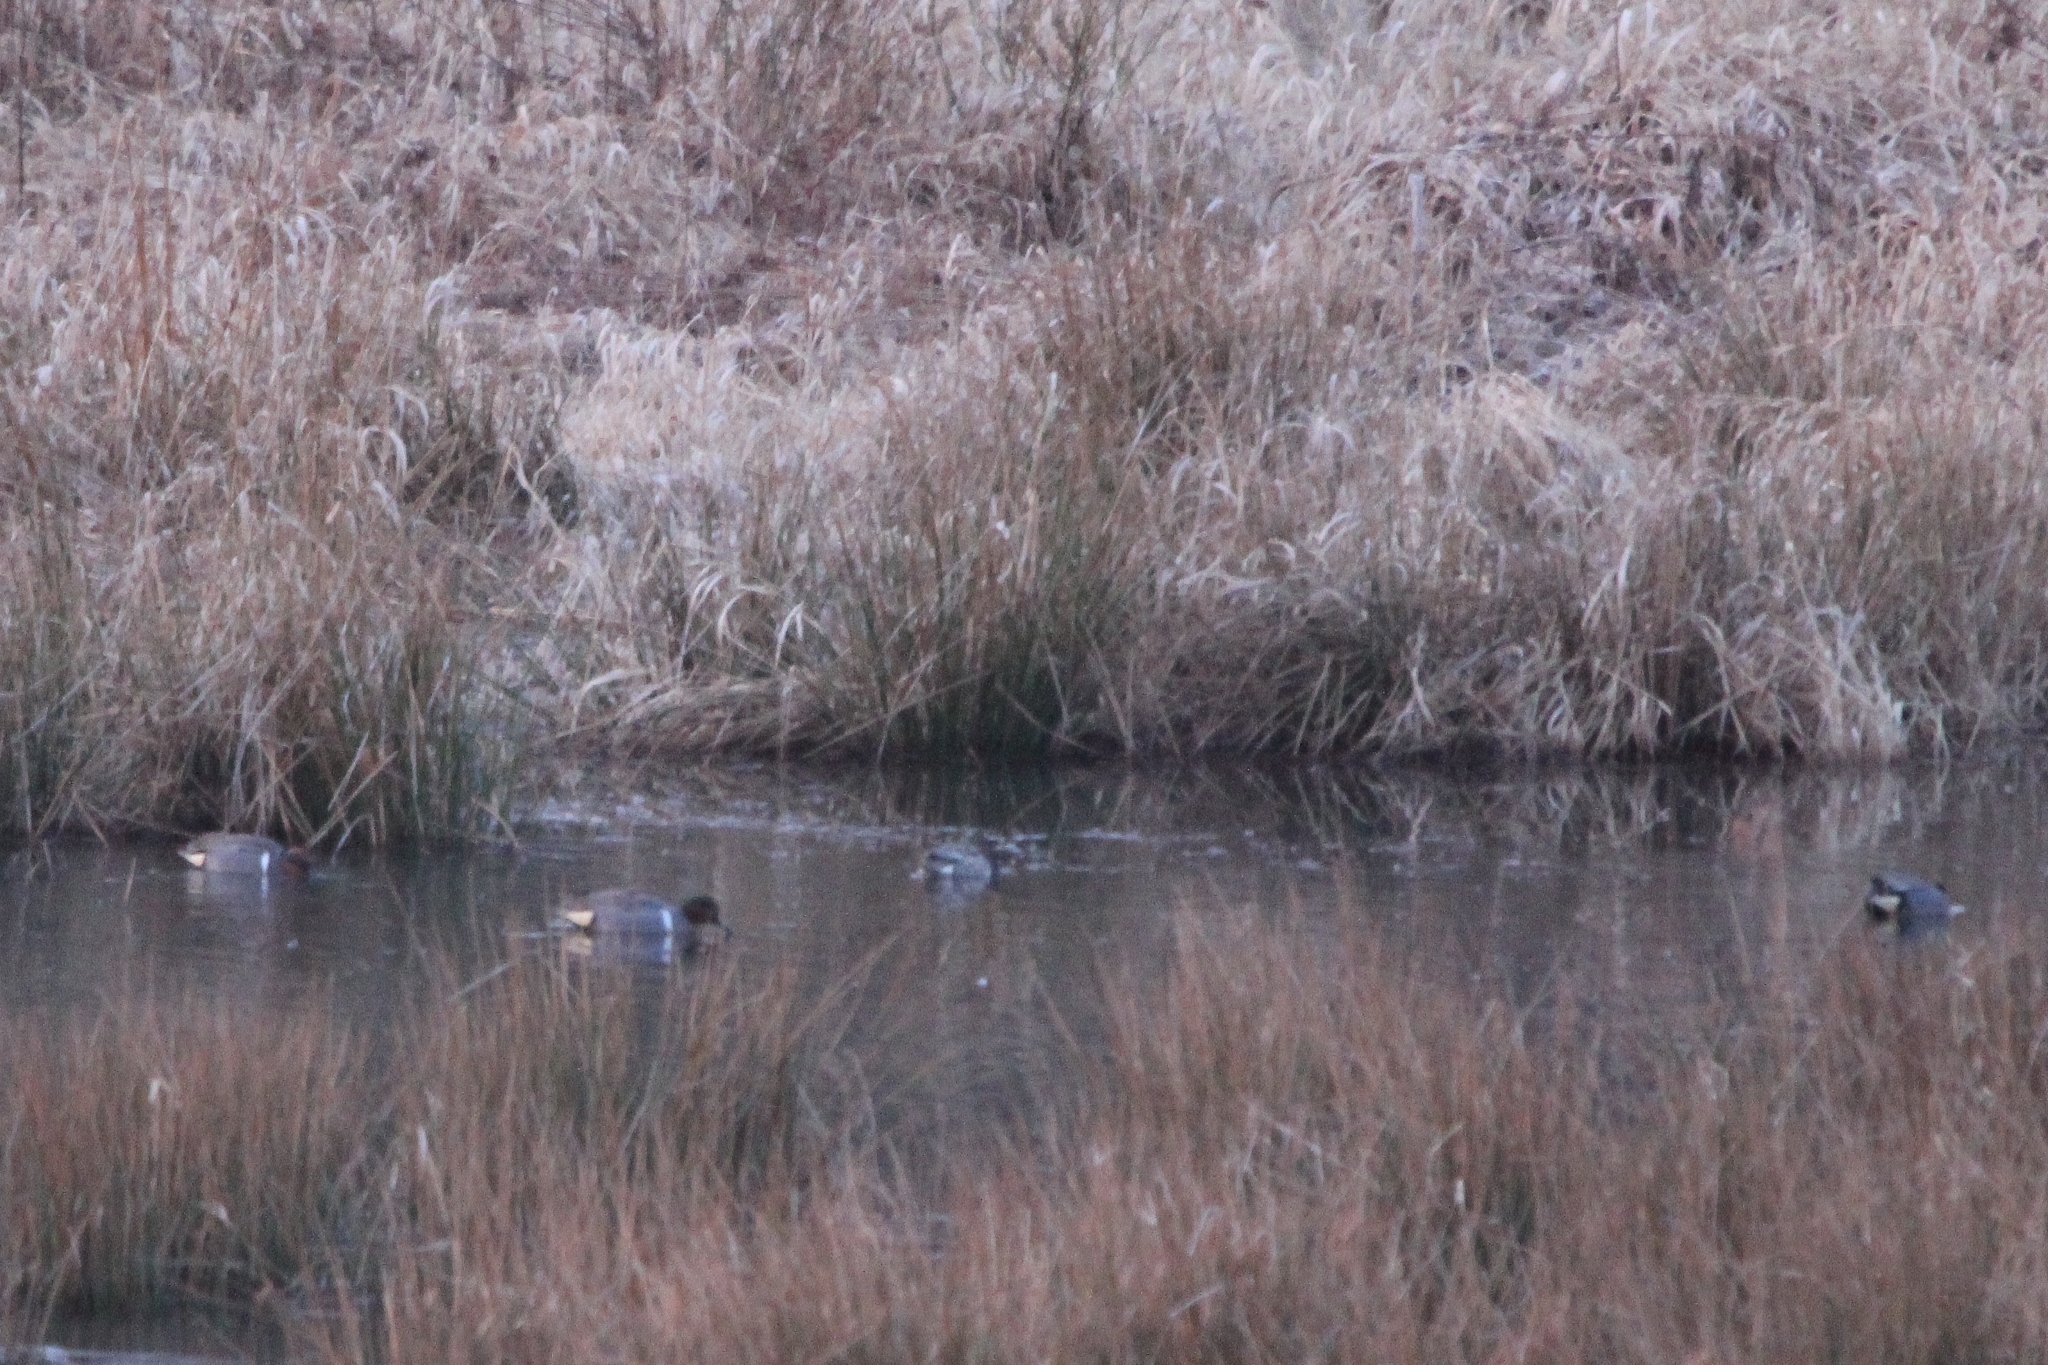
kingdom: Animalia
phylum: Chordata
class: Aves
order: Anseriformes
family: Anatidae
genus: Anas
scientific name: Anas crecca
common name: Eurasian teal
